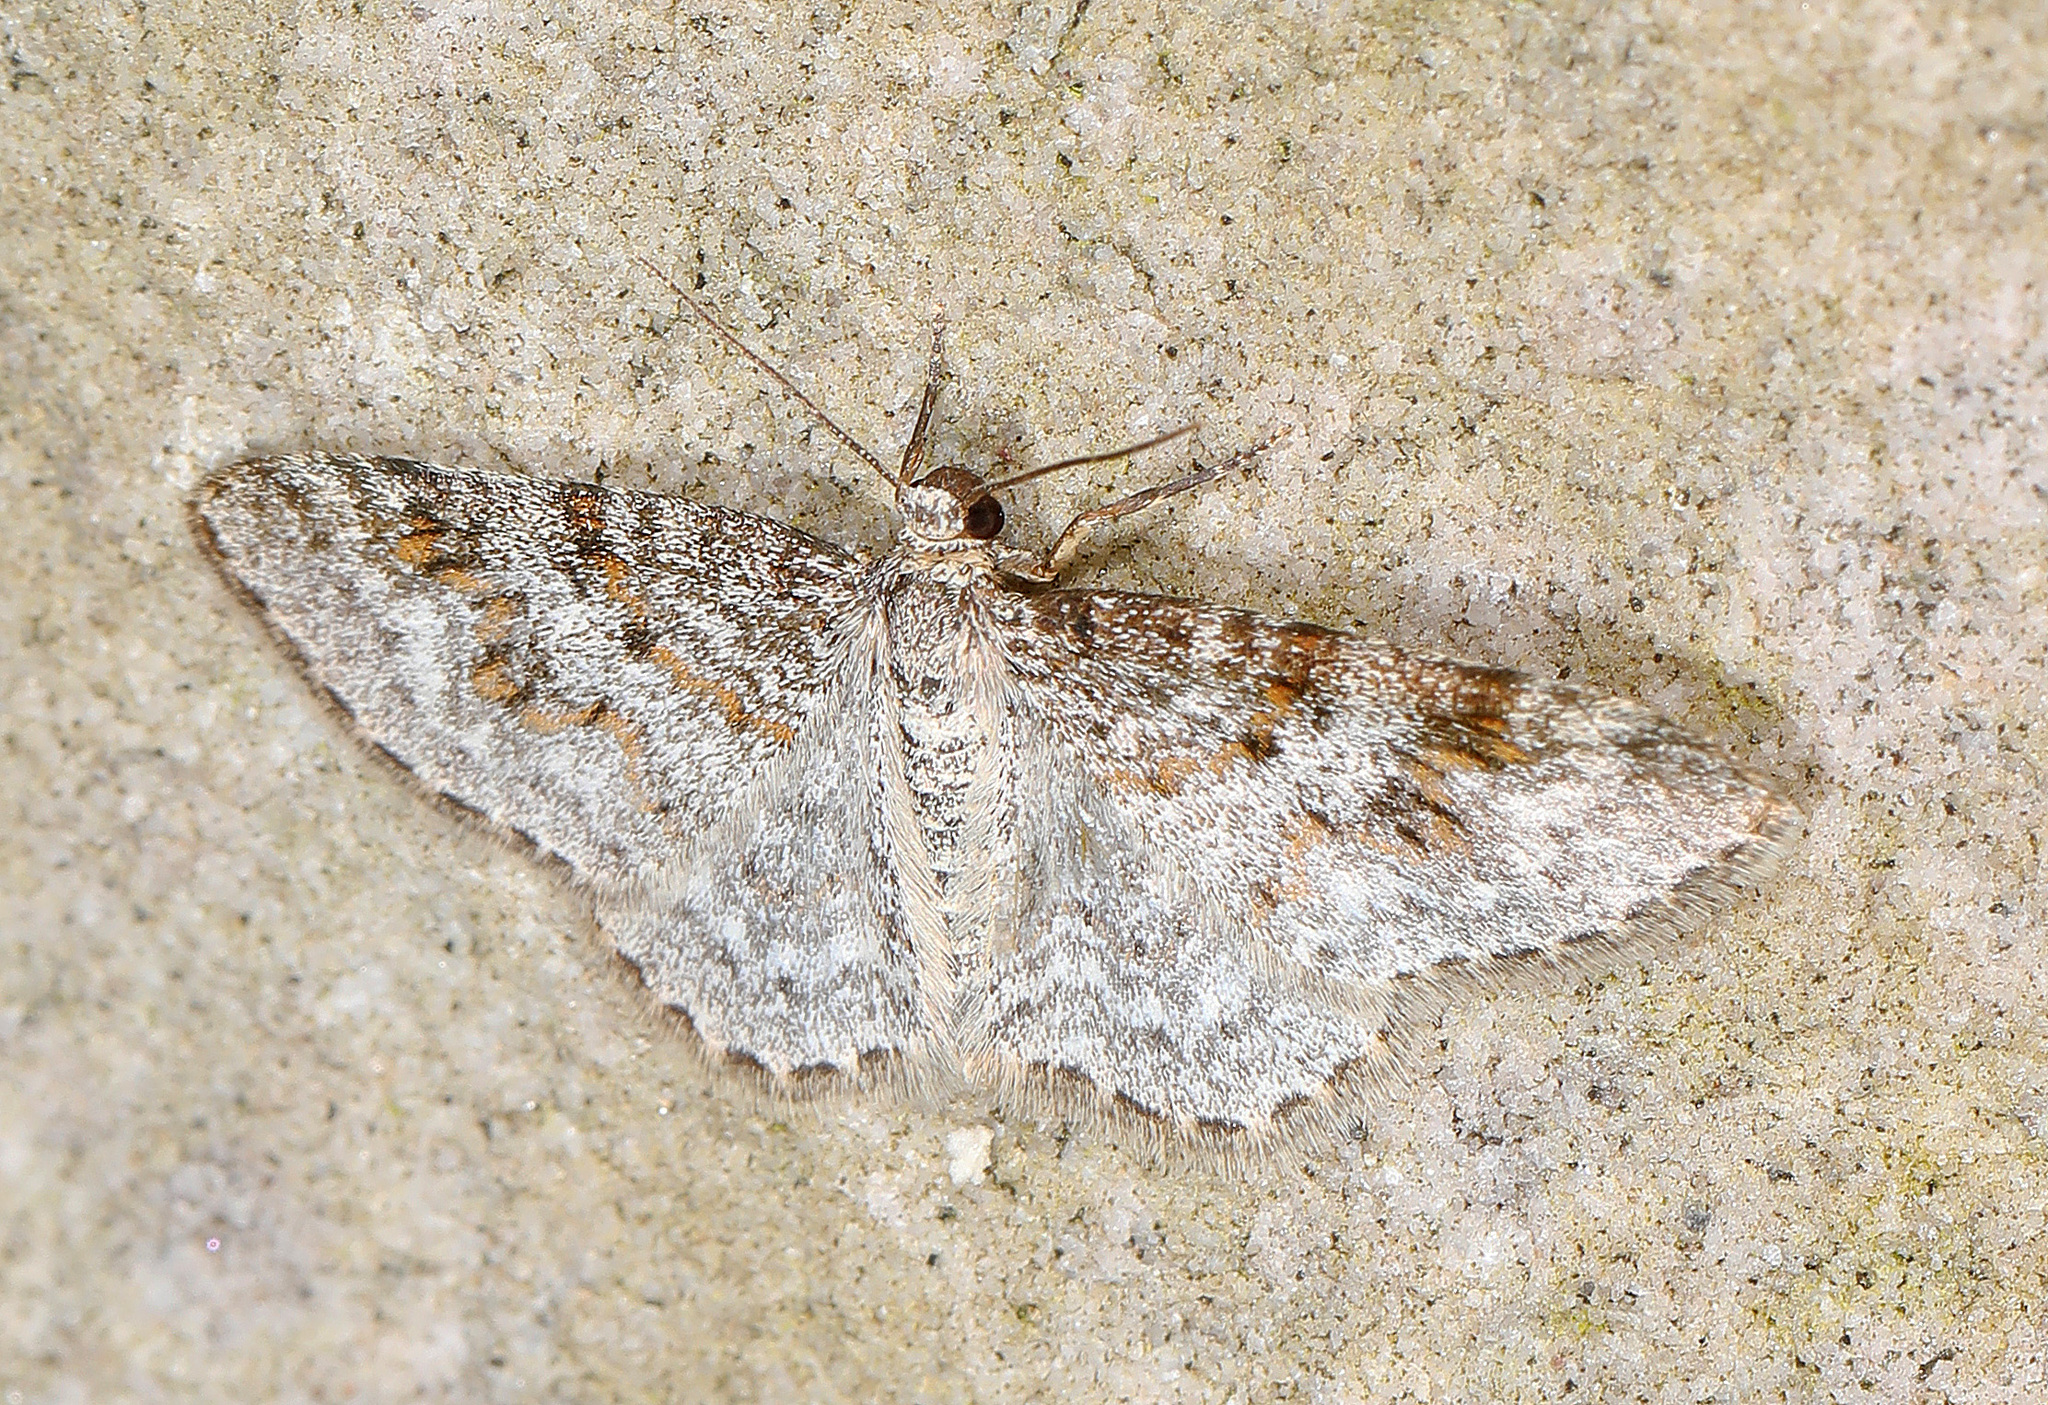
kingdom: Animalia
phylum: Arthropoda
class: Insecta
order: Lepidoptera
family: Geometridae
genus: Hydrelia
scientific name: Hydrelia inornata
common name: Unadorned carpet moth
